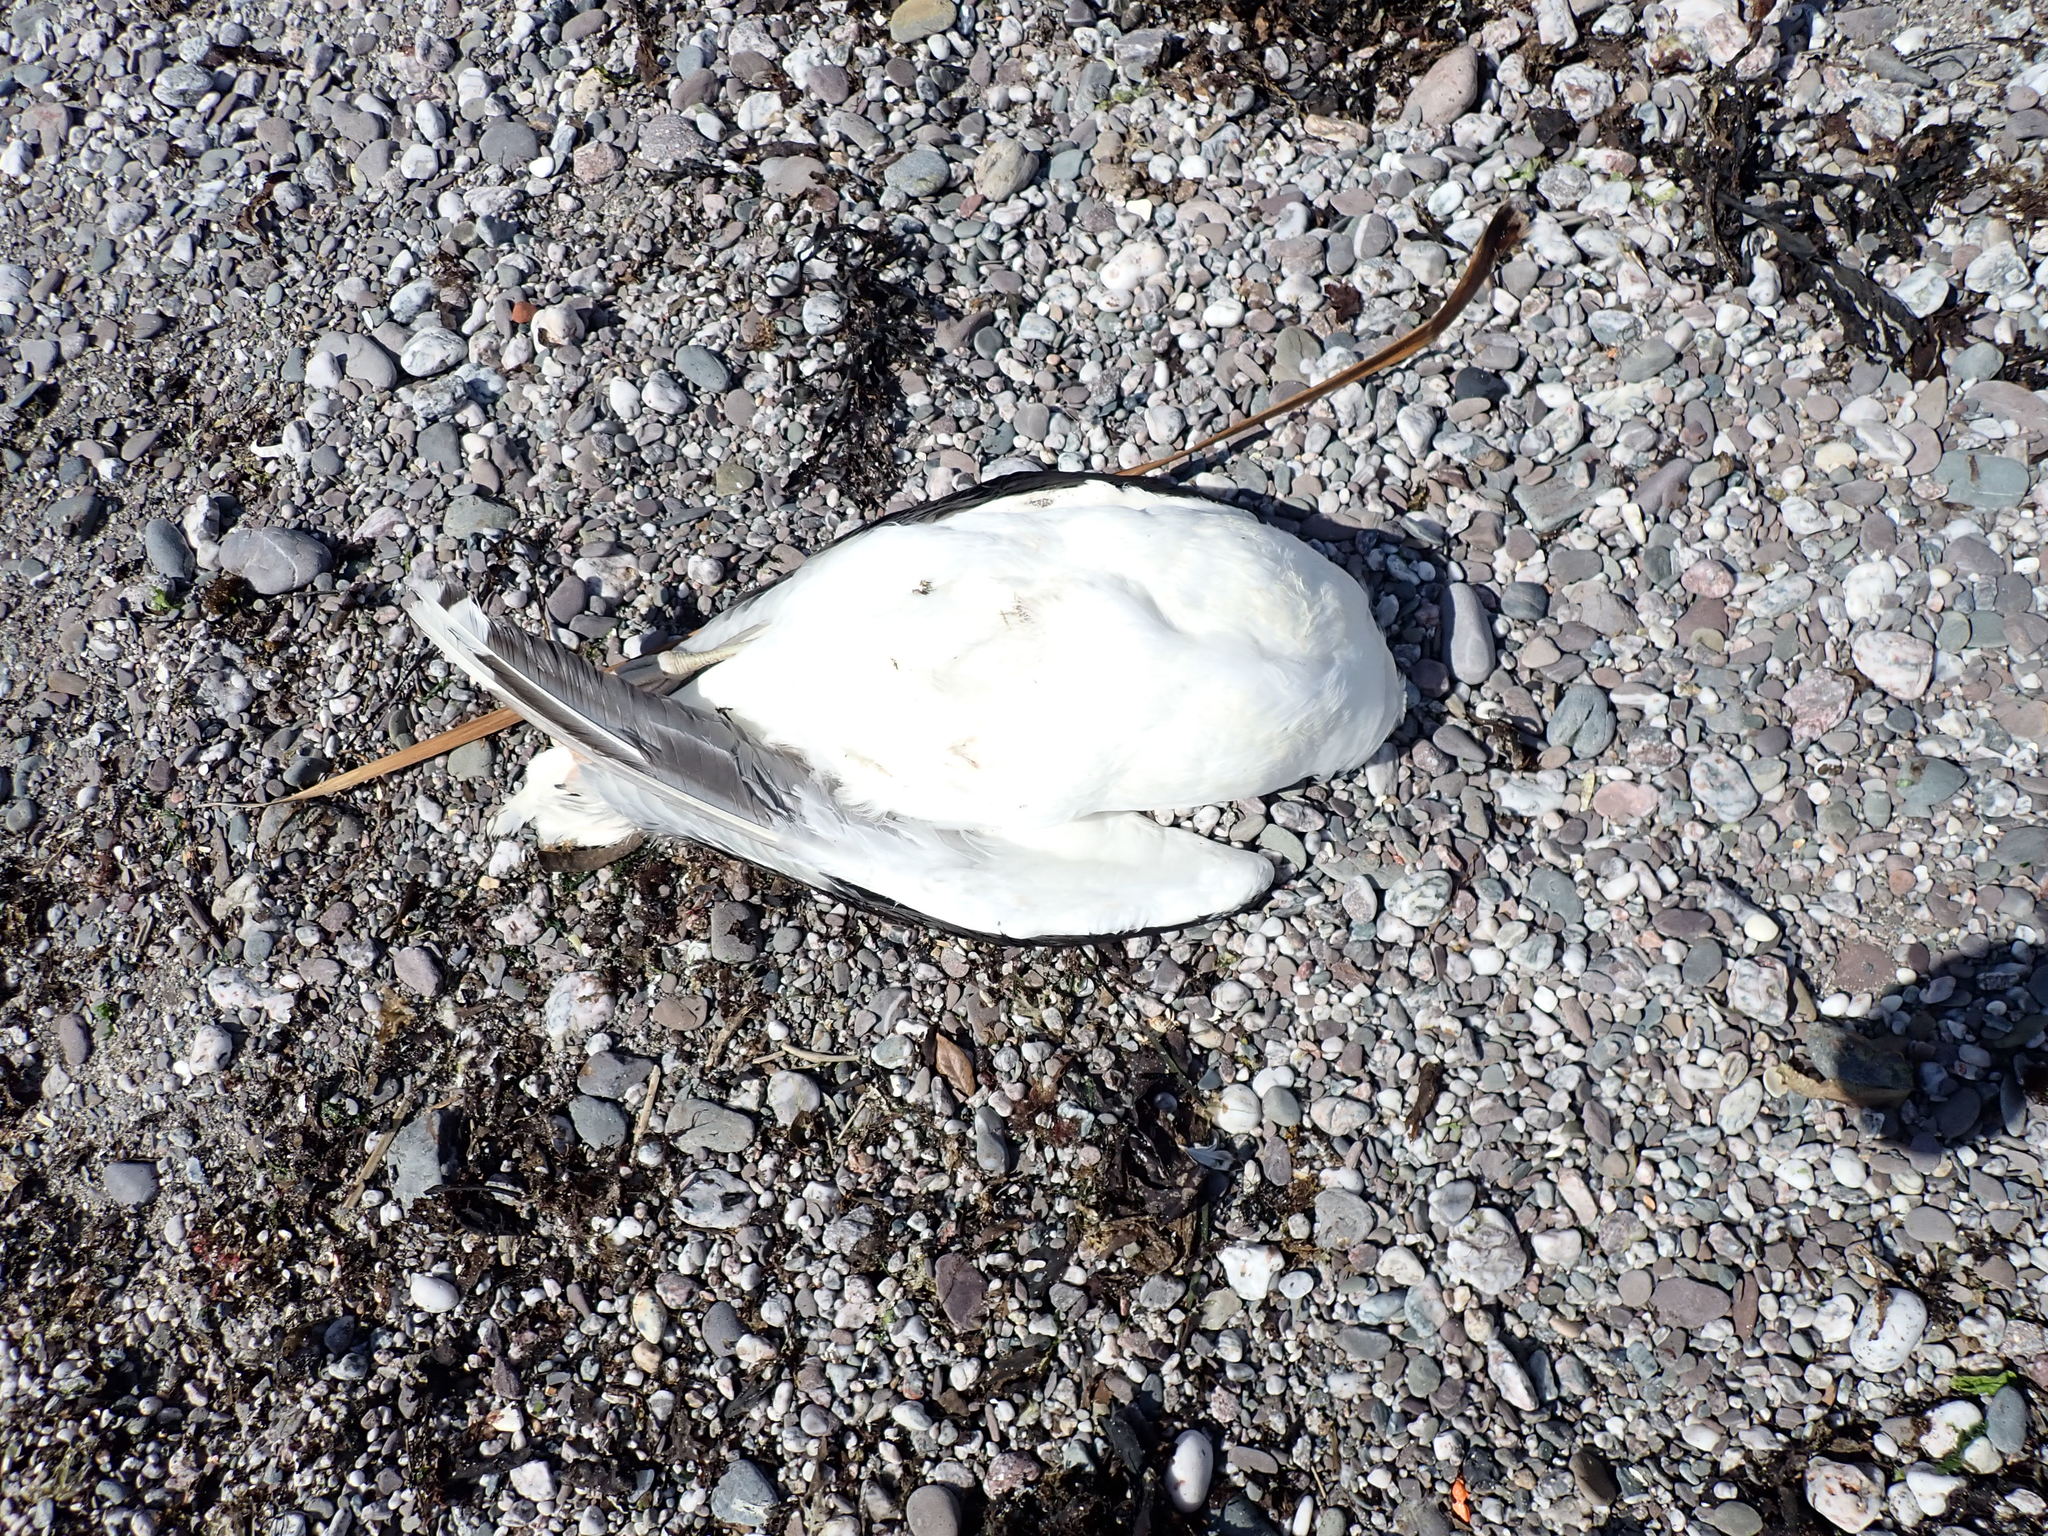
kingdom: Animalia
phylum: Chordata
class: Aves
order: Charadriiformes
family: Laridae
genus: Larus
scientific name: Larus marinus
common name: Great black-backed gull
